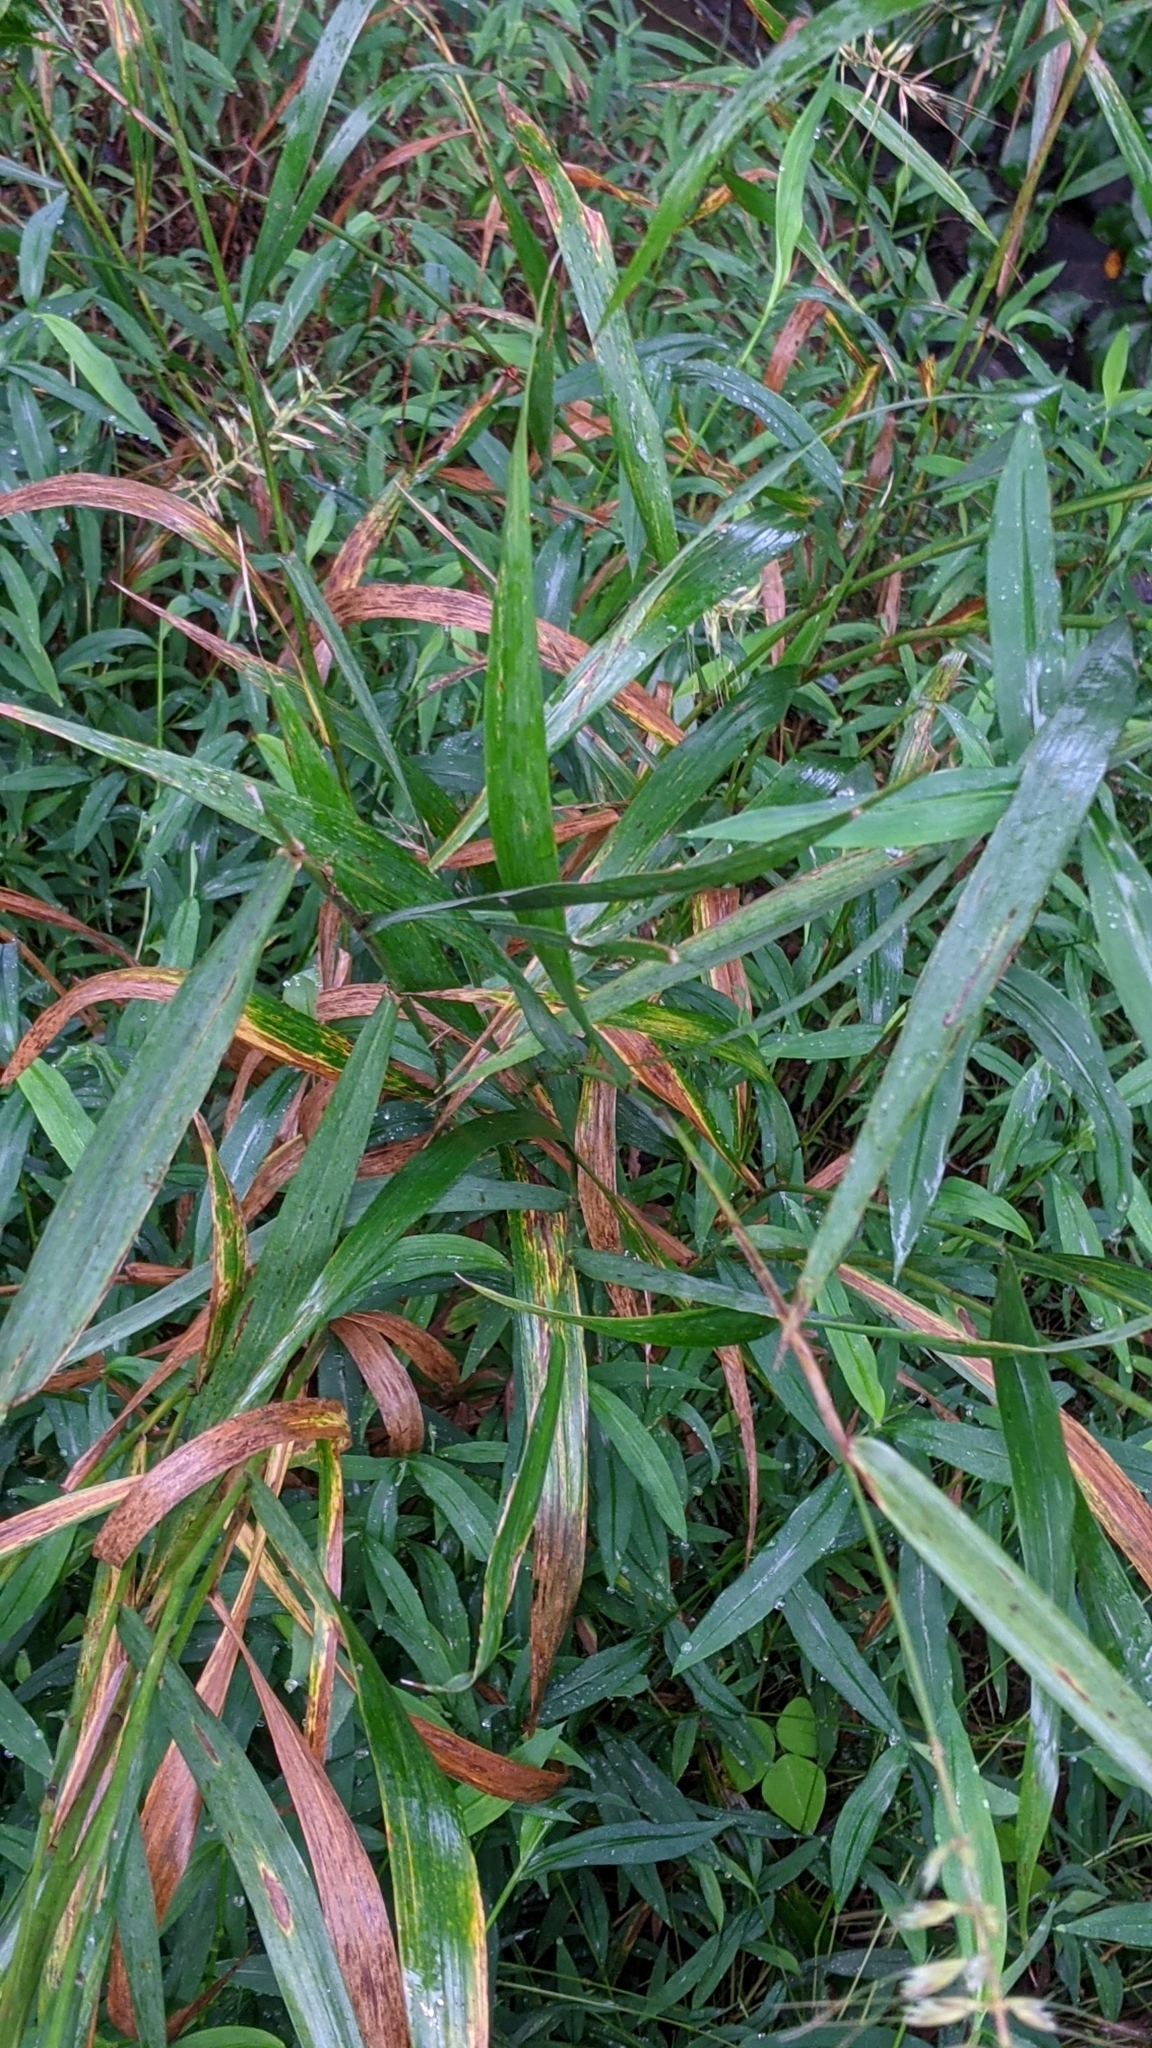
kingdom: Plantae
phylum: Tracheophyta
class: Liliopsida
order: Poales
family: Poaceae
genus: Elymus
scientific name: Elymus hystrix
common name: Bottlebrush grass
